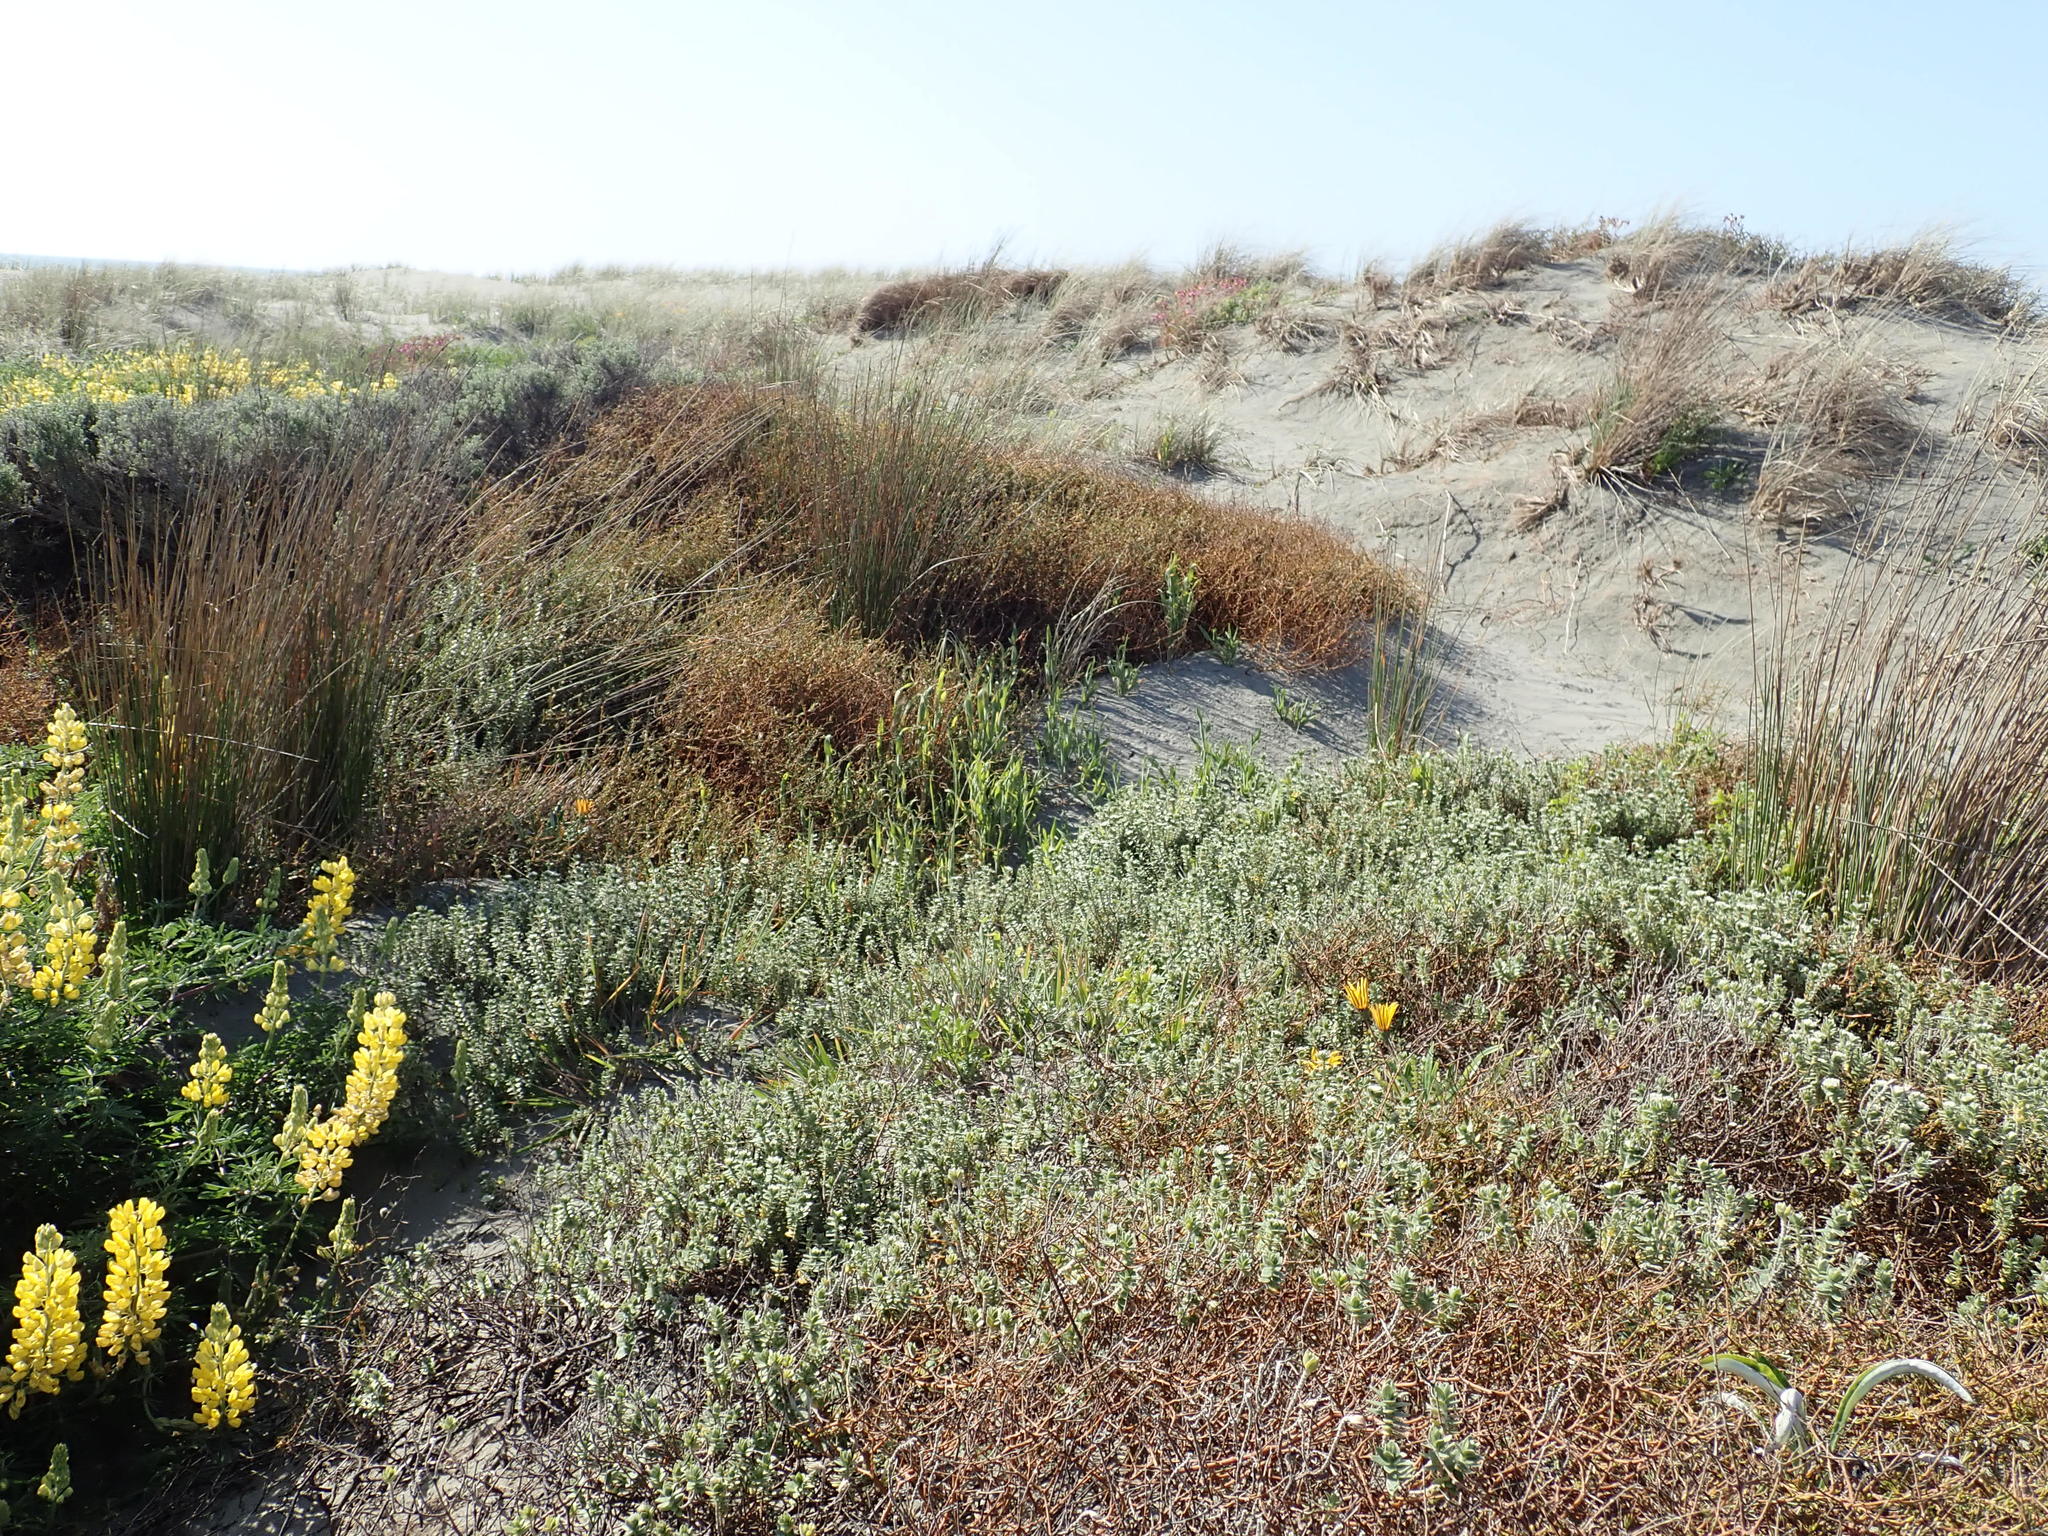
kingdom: Plantae
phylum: Tracheophyta
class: Magnoliopsida
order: Malvales
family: Thymelaeaceae
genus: Pimelea
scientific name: Pimelea villosa
